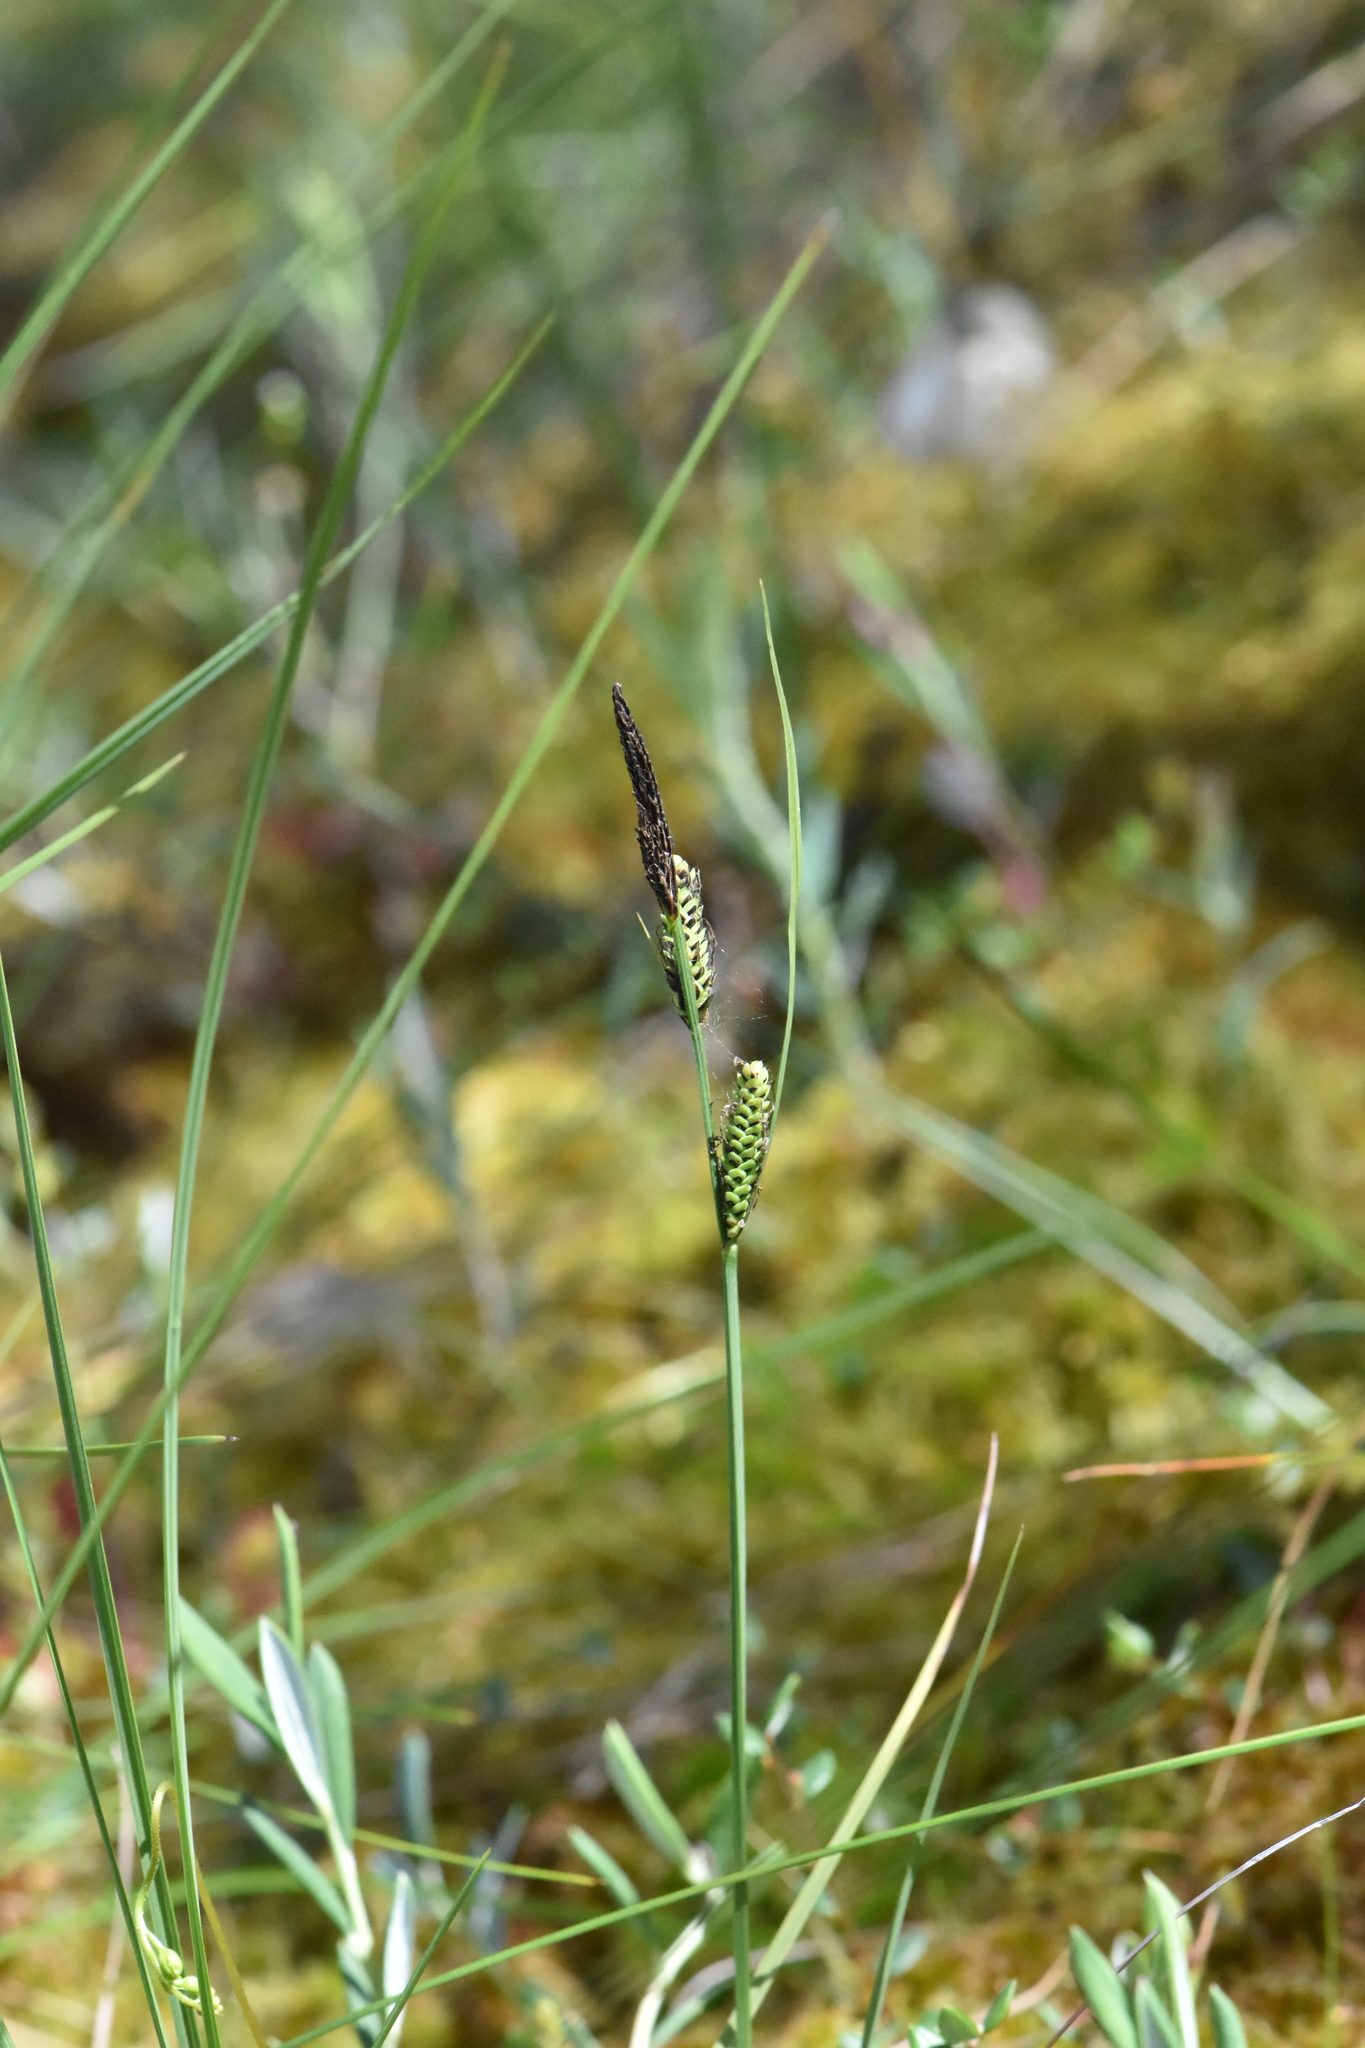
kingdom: Plantae
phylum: Tracheophyta
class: Liliopsida
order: Poales
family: Cyperaceae
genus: Carex
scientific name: Carex nigra
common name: Common sedge
